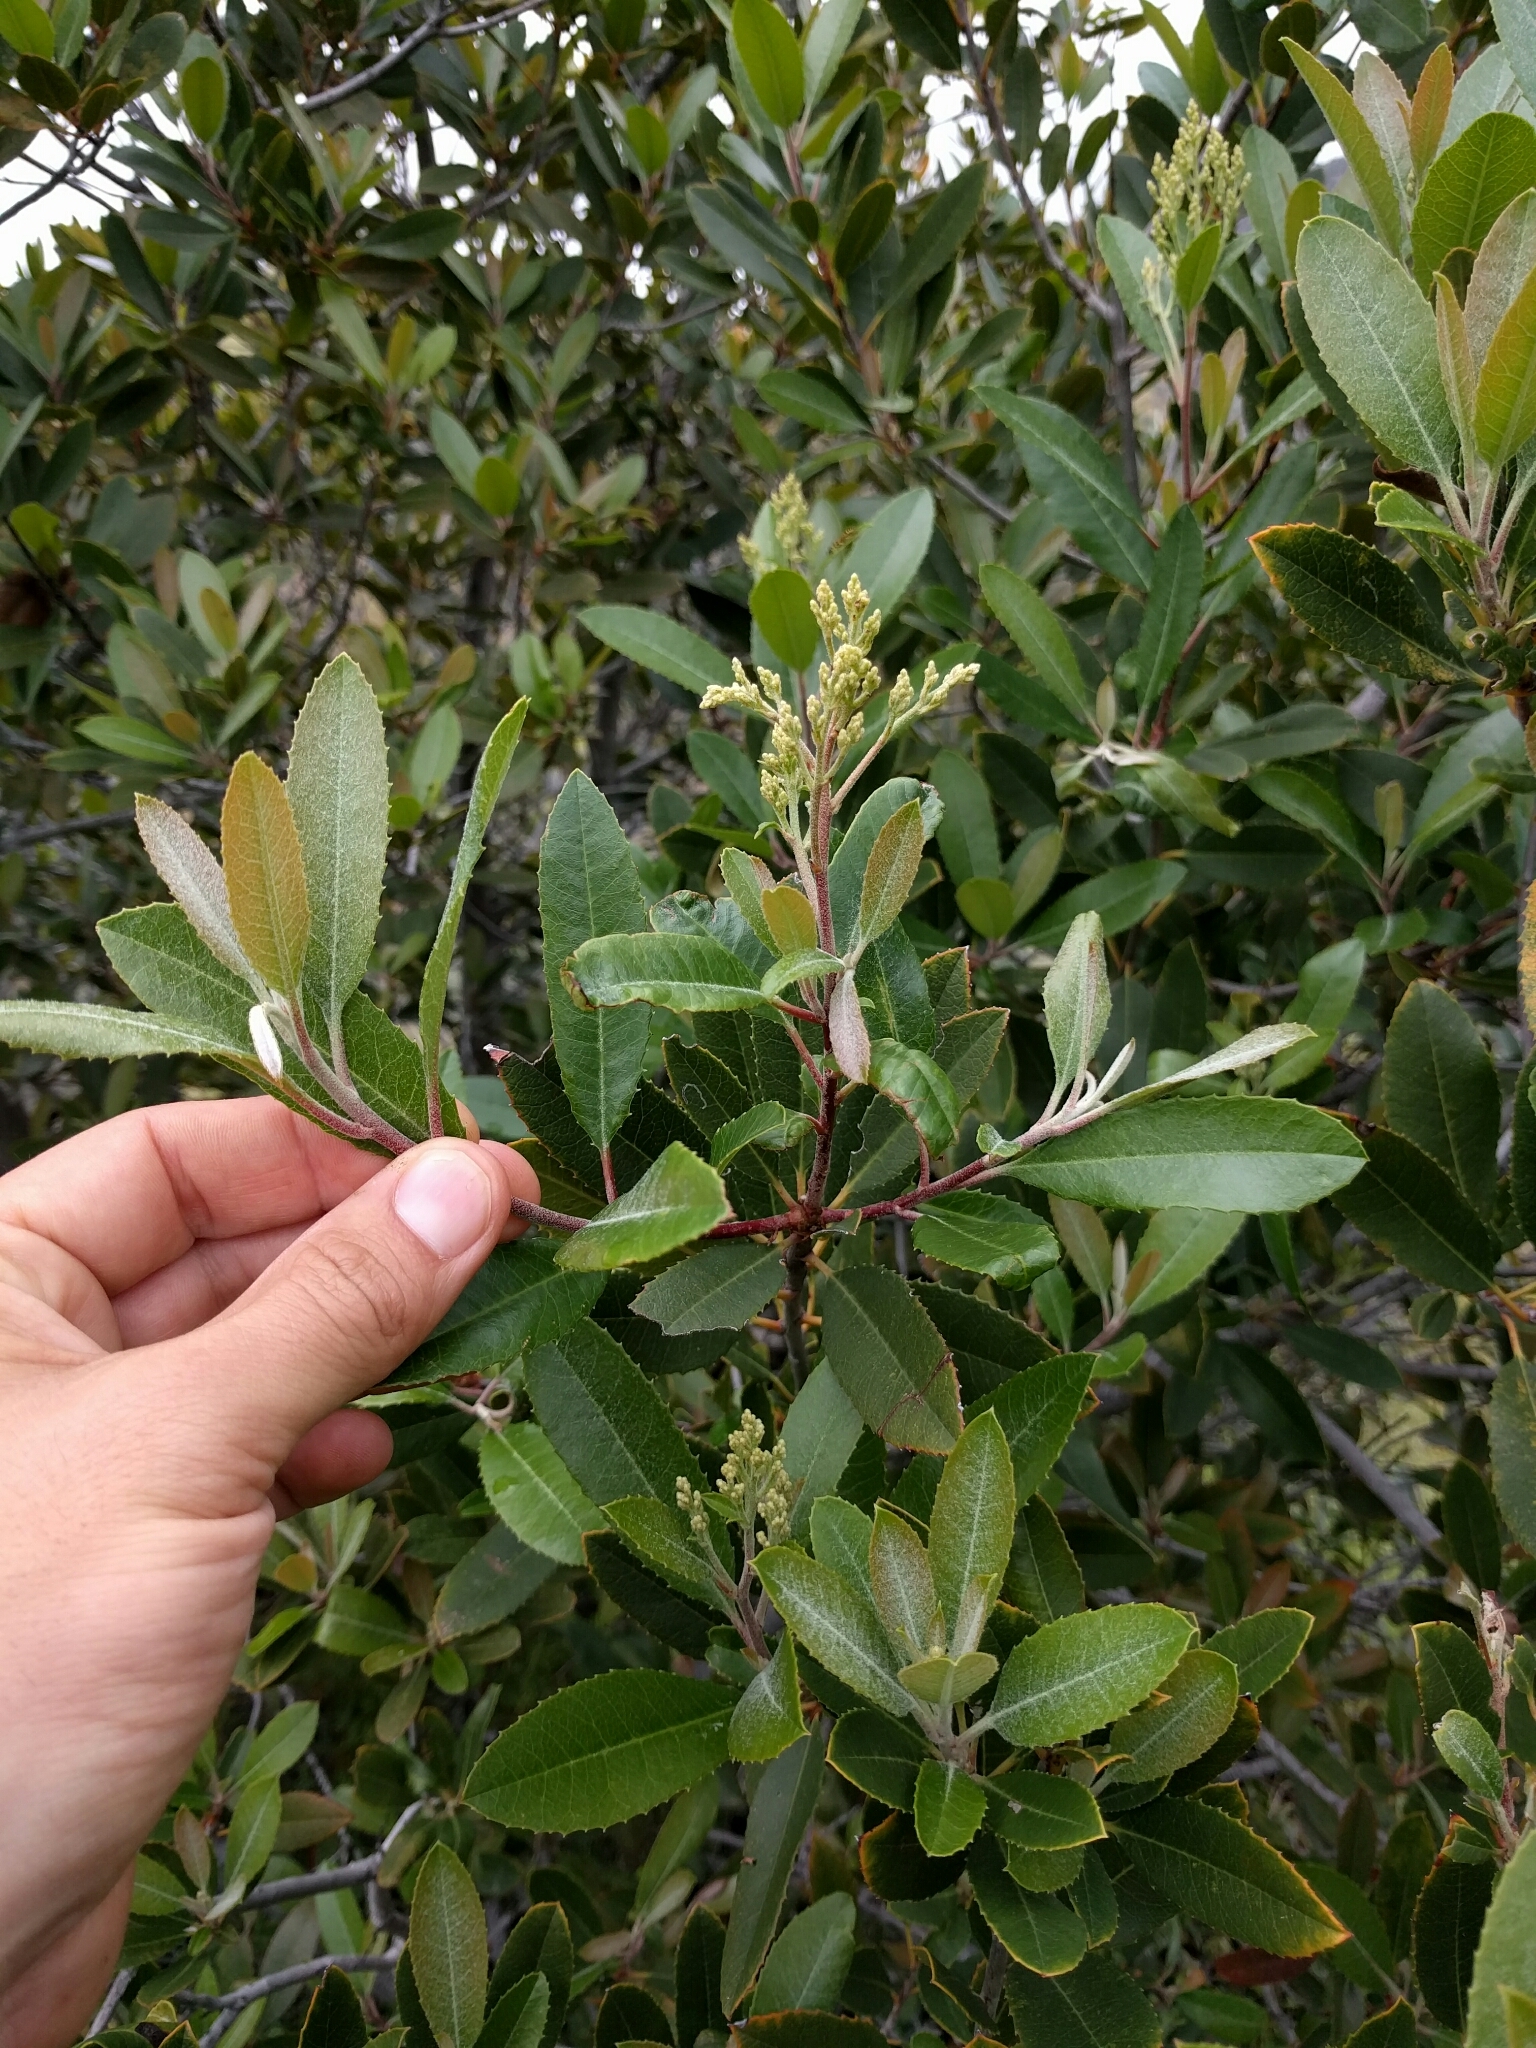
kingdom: Plantae
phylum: Tracheophyta
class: Magnoliopsida
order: Rosales
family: Rosaceae
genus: Heteromeles
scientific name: Heteromeles arbutifolia
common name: California-holly
